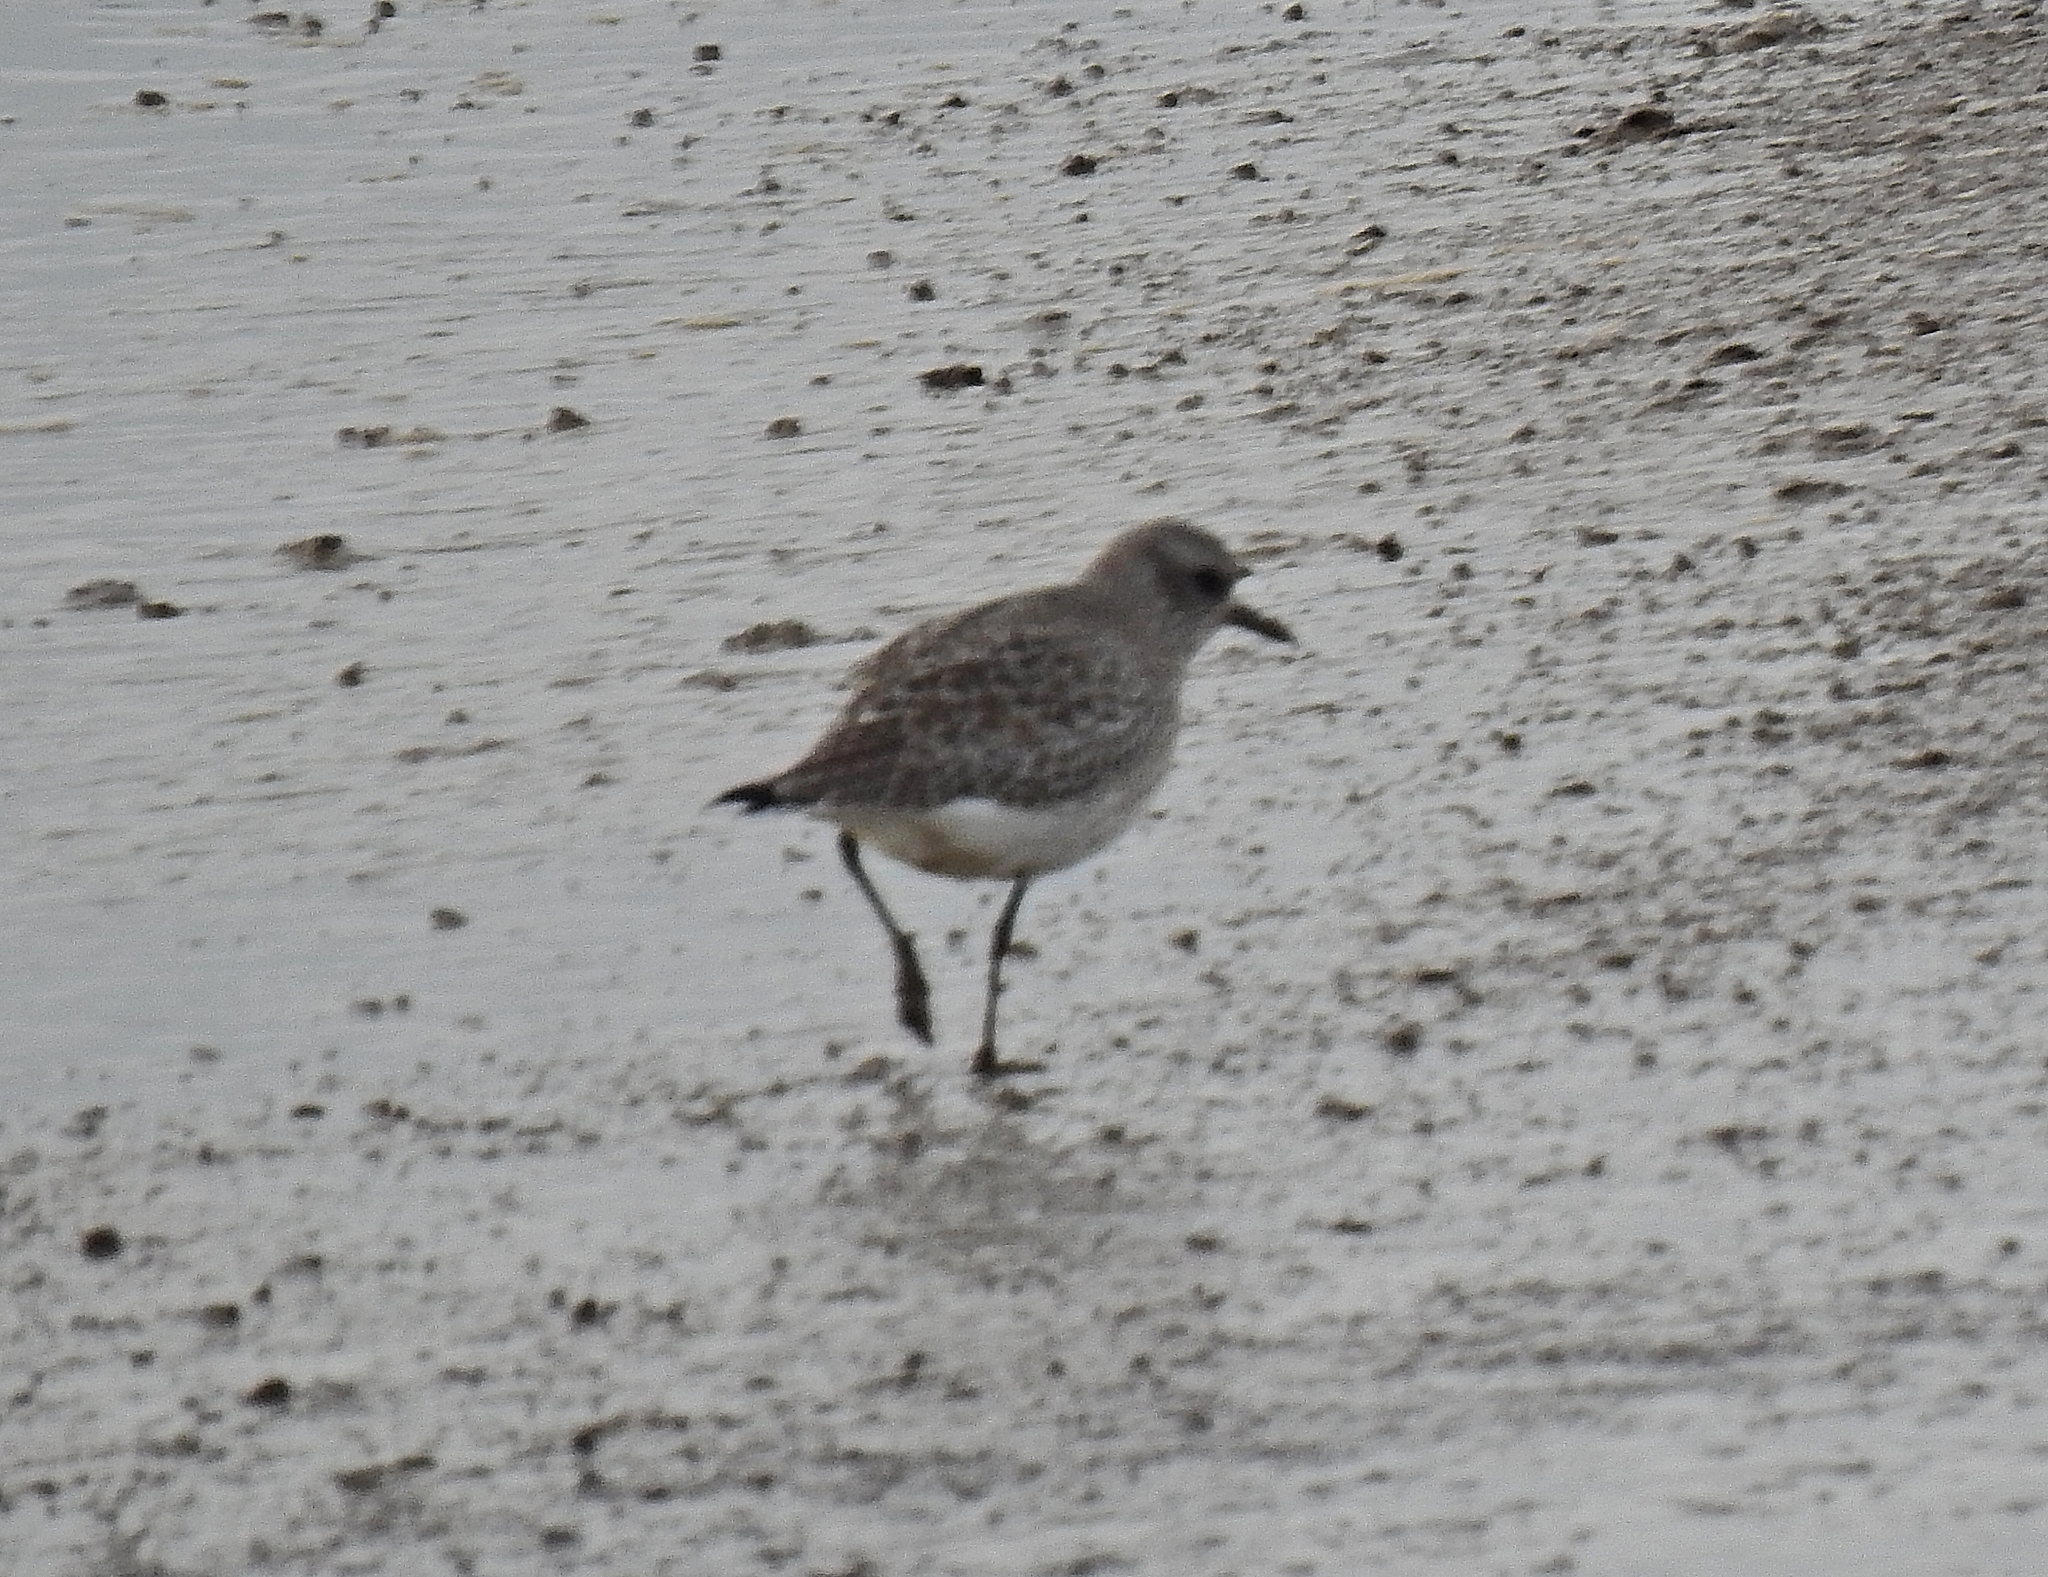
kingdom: Animalia
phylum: Chordata
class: Aves
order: Charadriiformes
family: Charadriidae
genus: Pluvialis
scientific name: Pluvialis squatarola
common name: Grey plover
